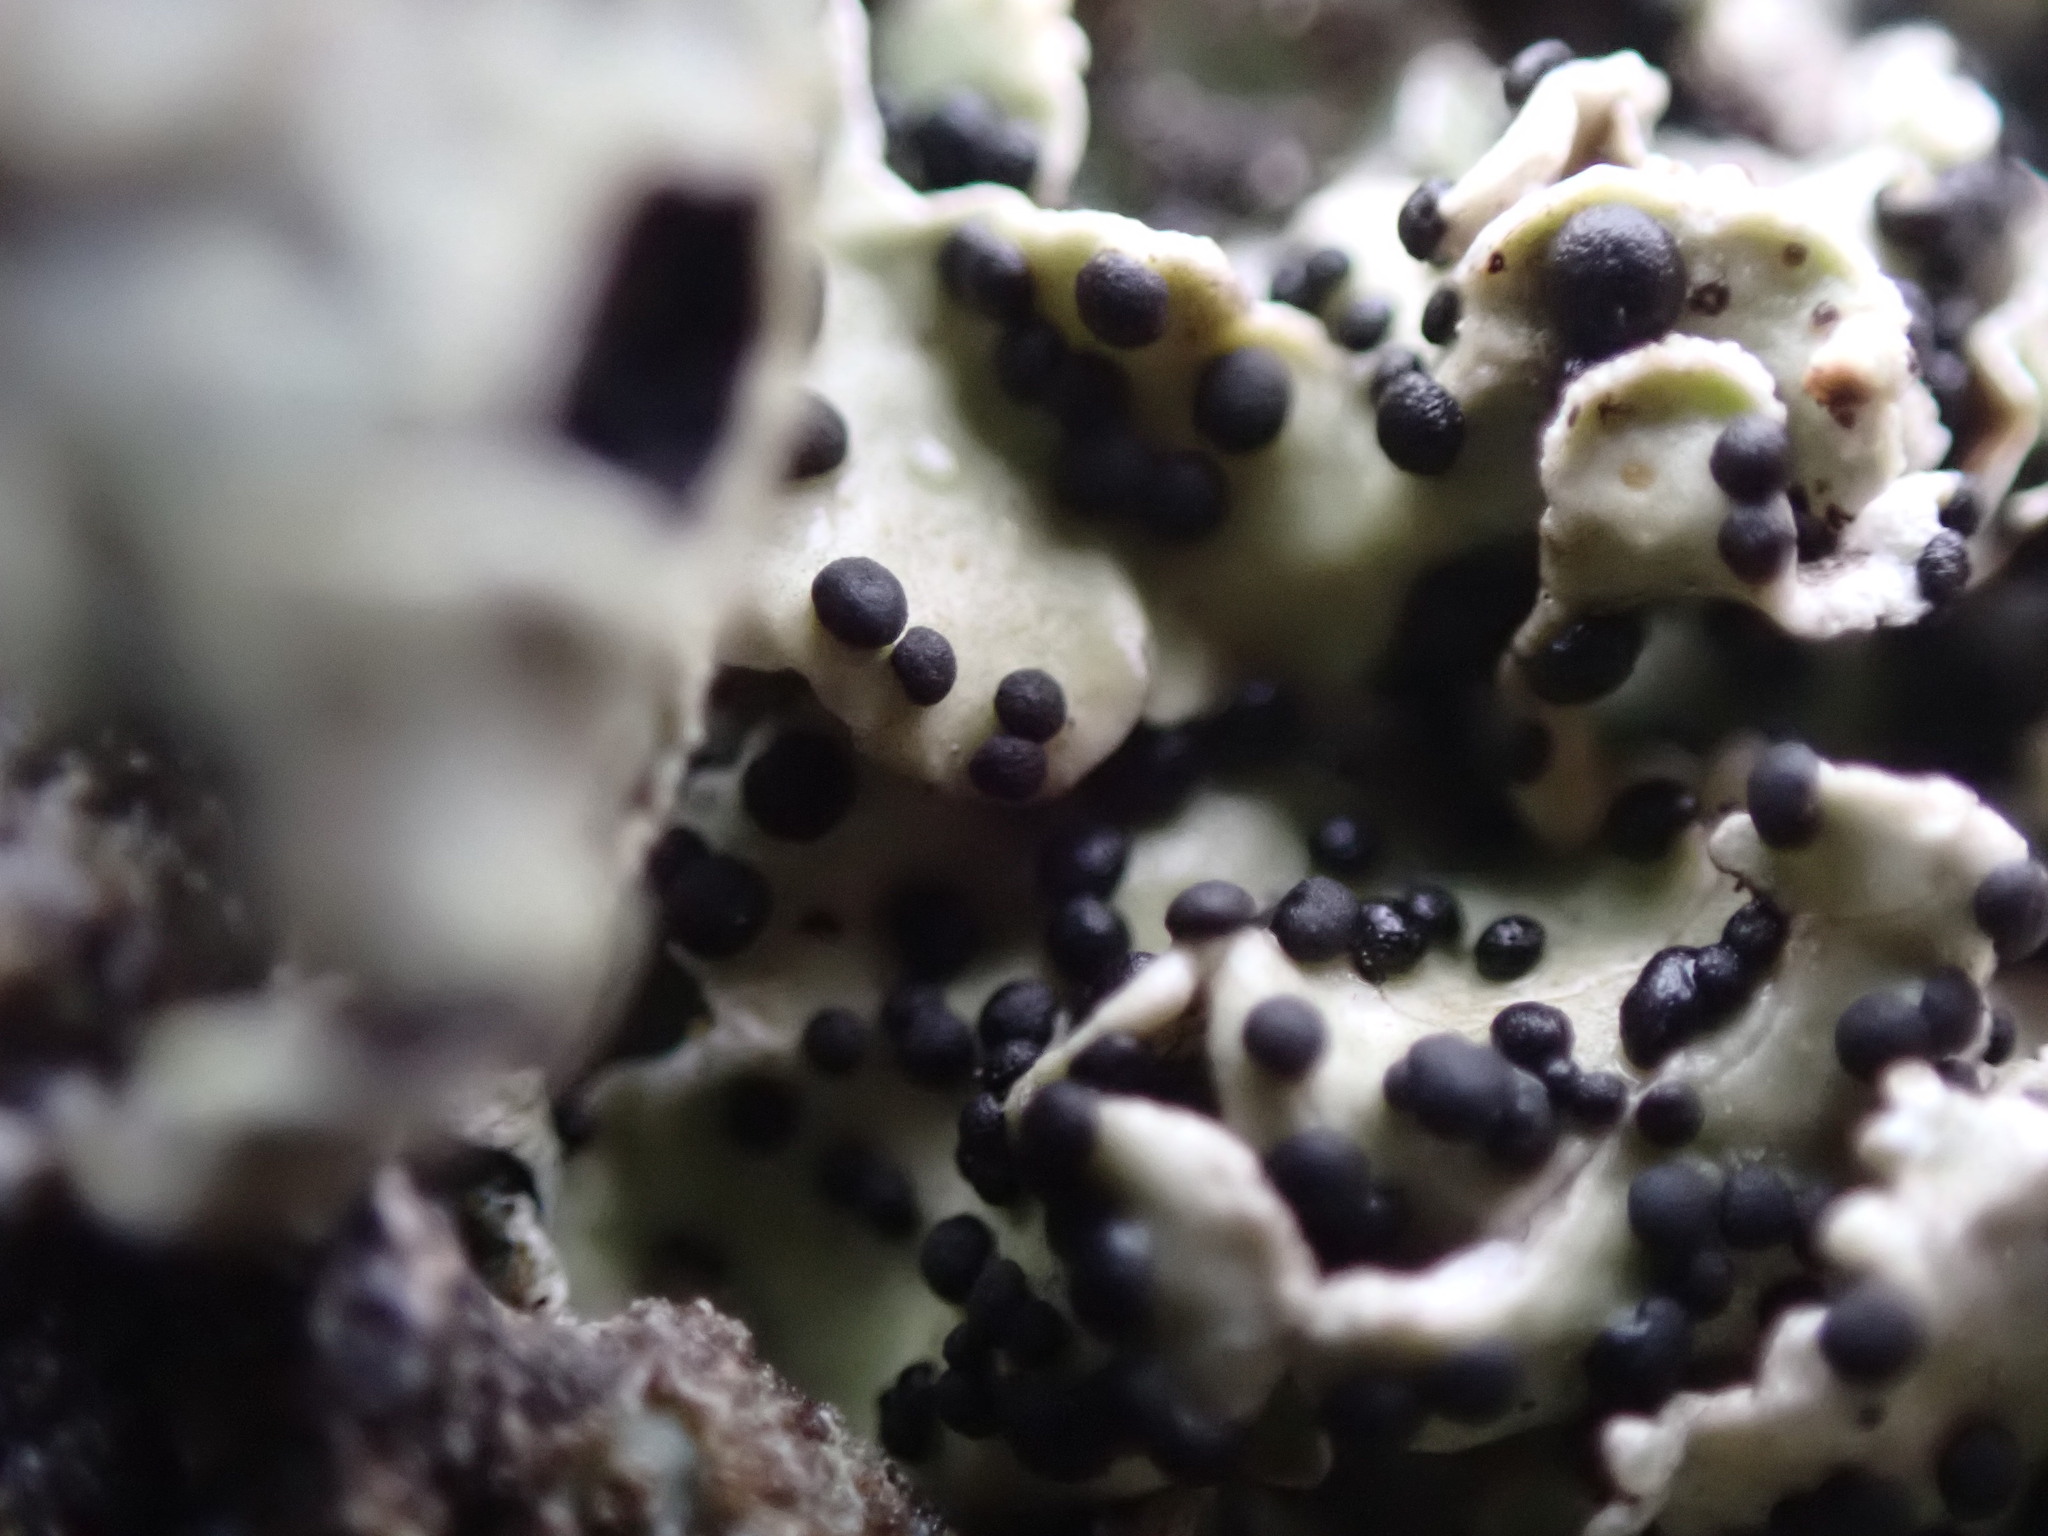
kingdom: Fungi
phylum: Ascomycota
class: Dothideomycetes
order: Abrothallales
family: Abrothallaceae
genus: Abrothallus
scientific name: Abrothallus parmeliarum
